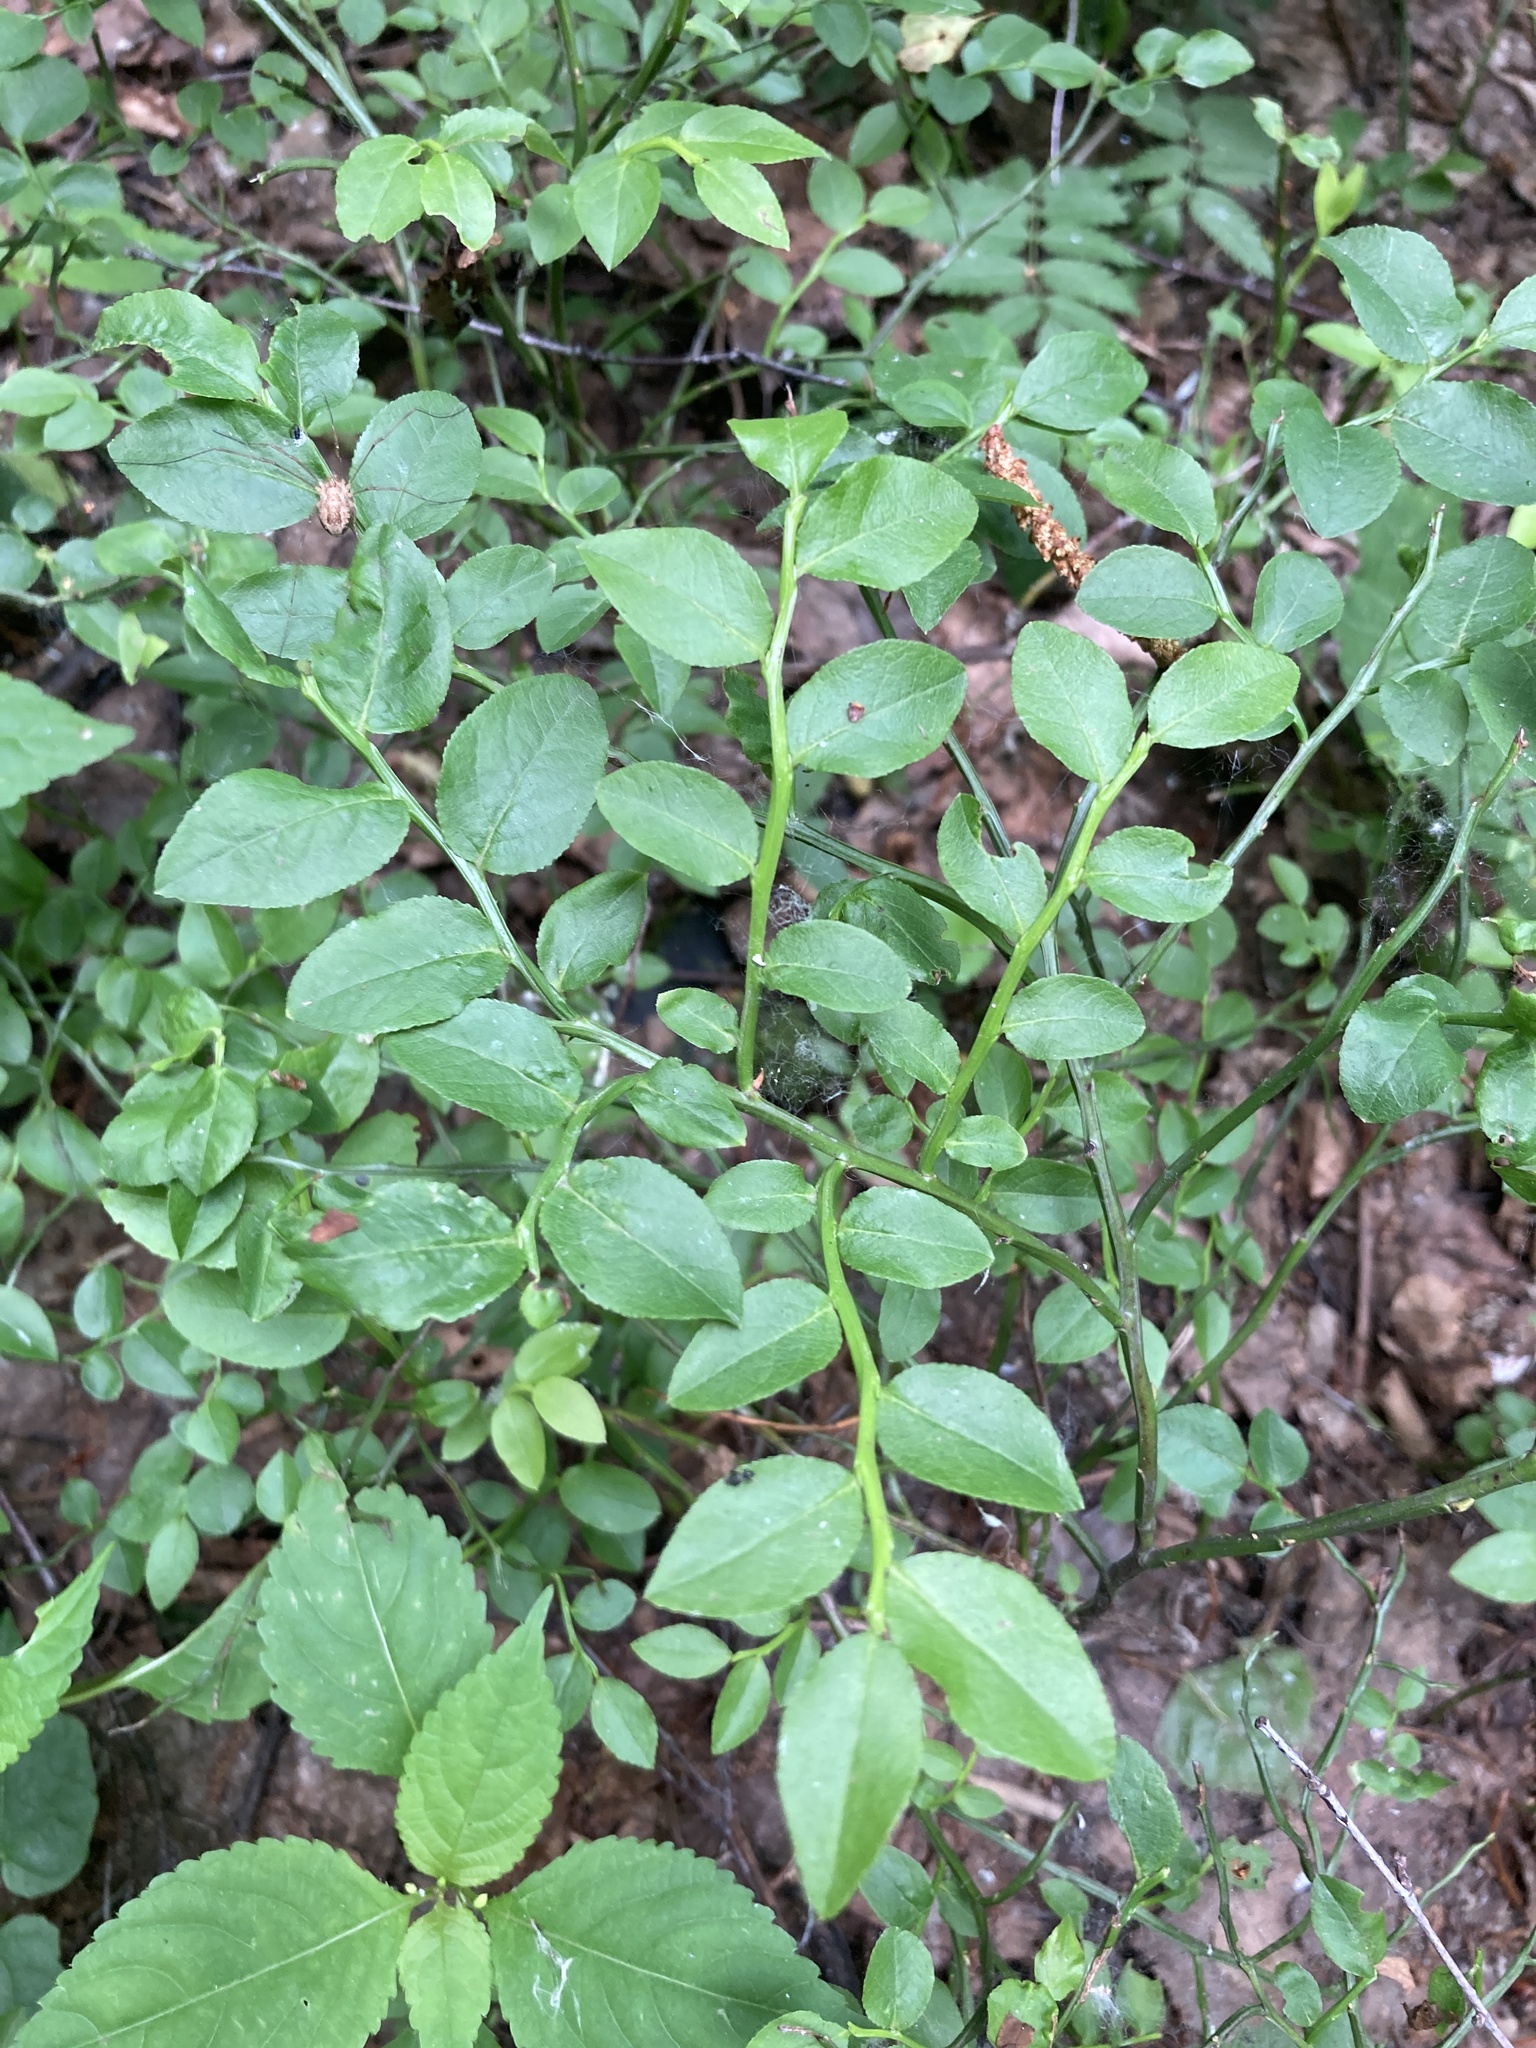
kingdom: Plantae
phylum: Tracheophyta
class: Magnoliopsida
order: Ericales
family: Ericaceae
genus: Vaccinium
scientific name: Vaccinium myrtillus
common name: Bilberry
